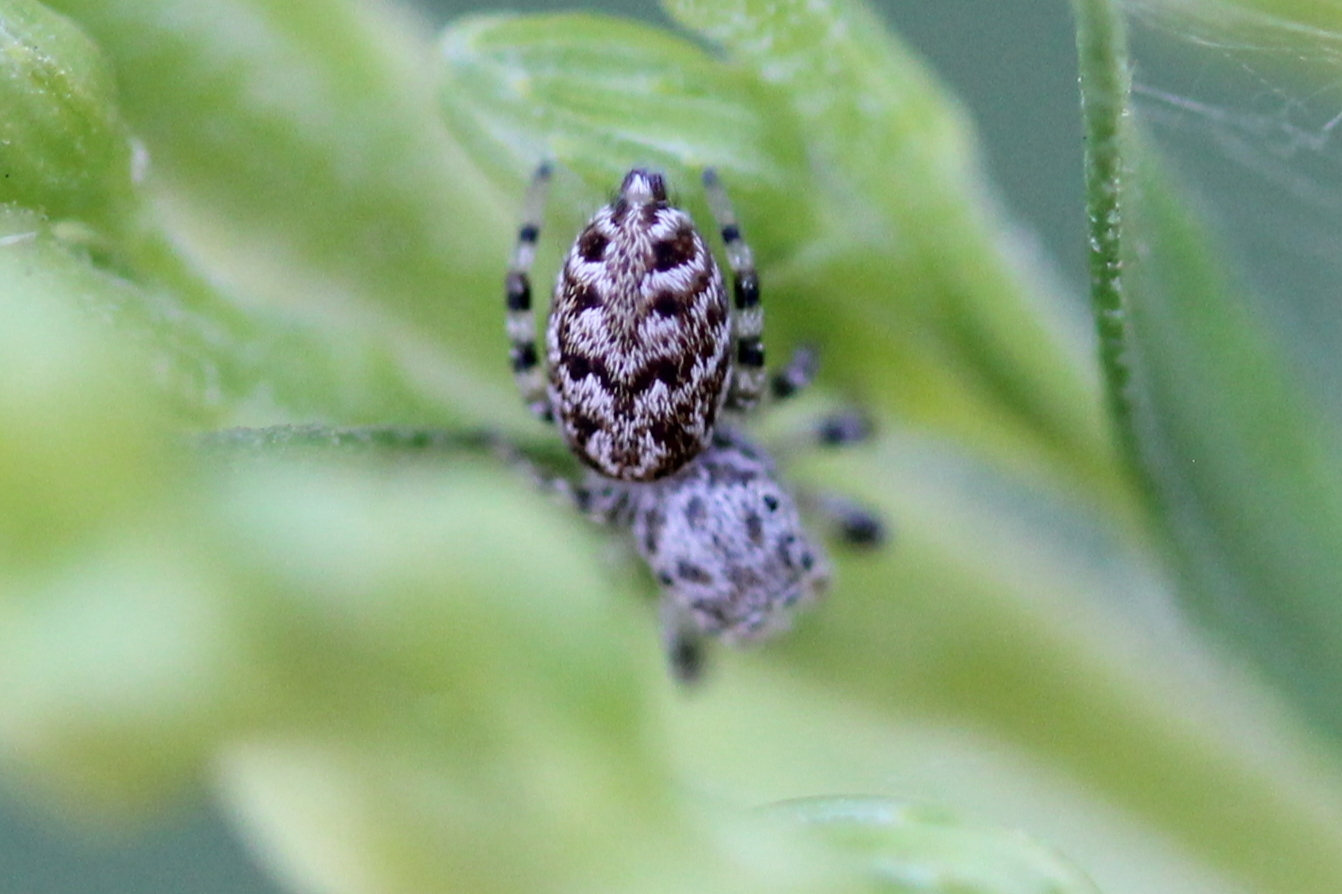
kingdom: Animalia
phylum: Arthropoda
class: Arachnida
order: Araneae
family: Salticidae
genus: Pelegrina
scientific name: Pelegrina galathea
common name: Jumping spiders
